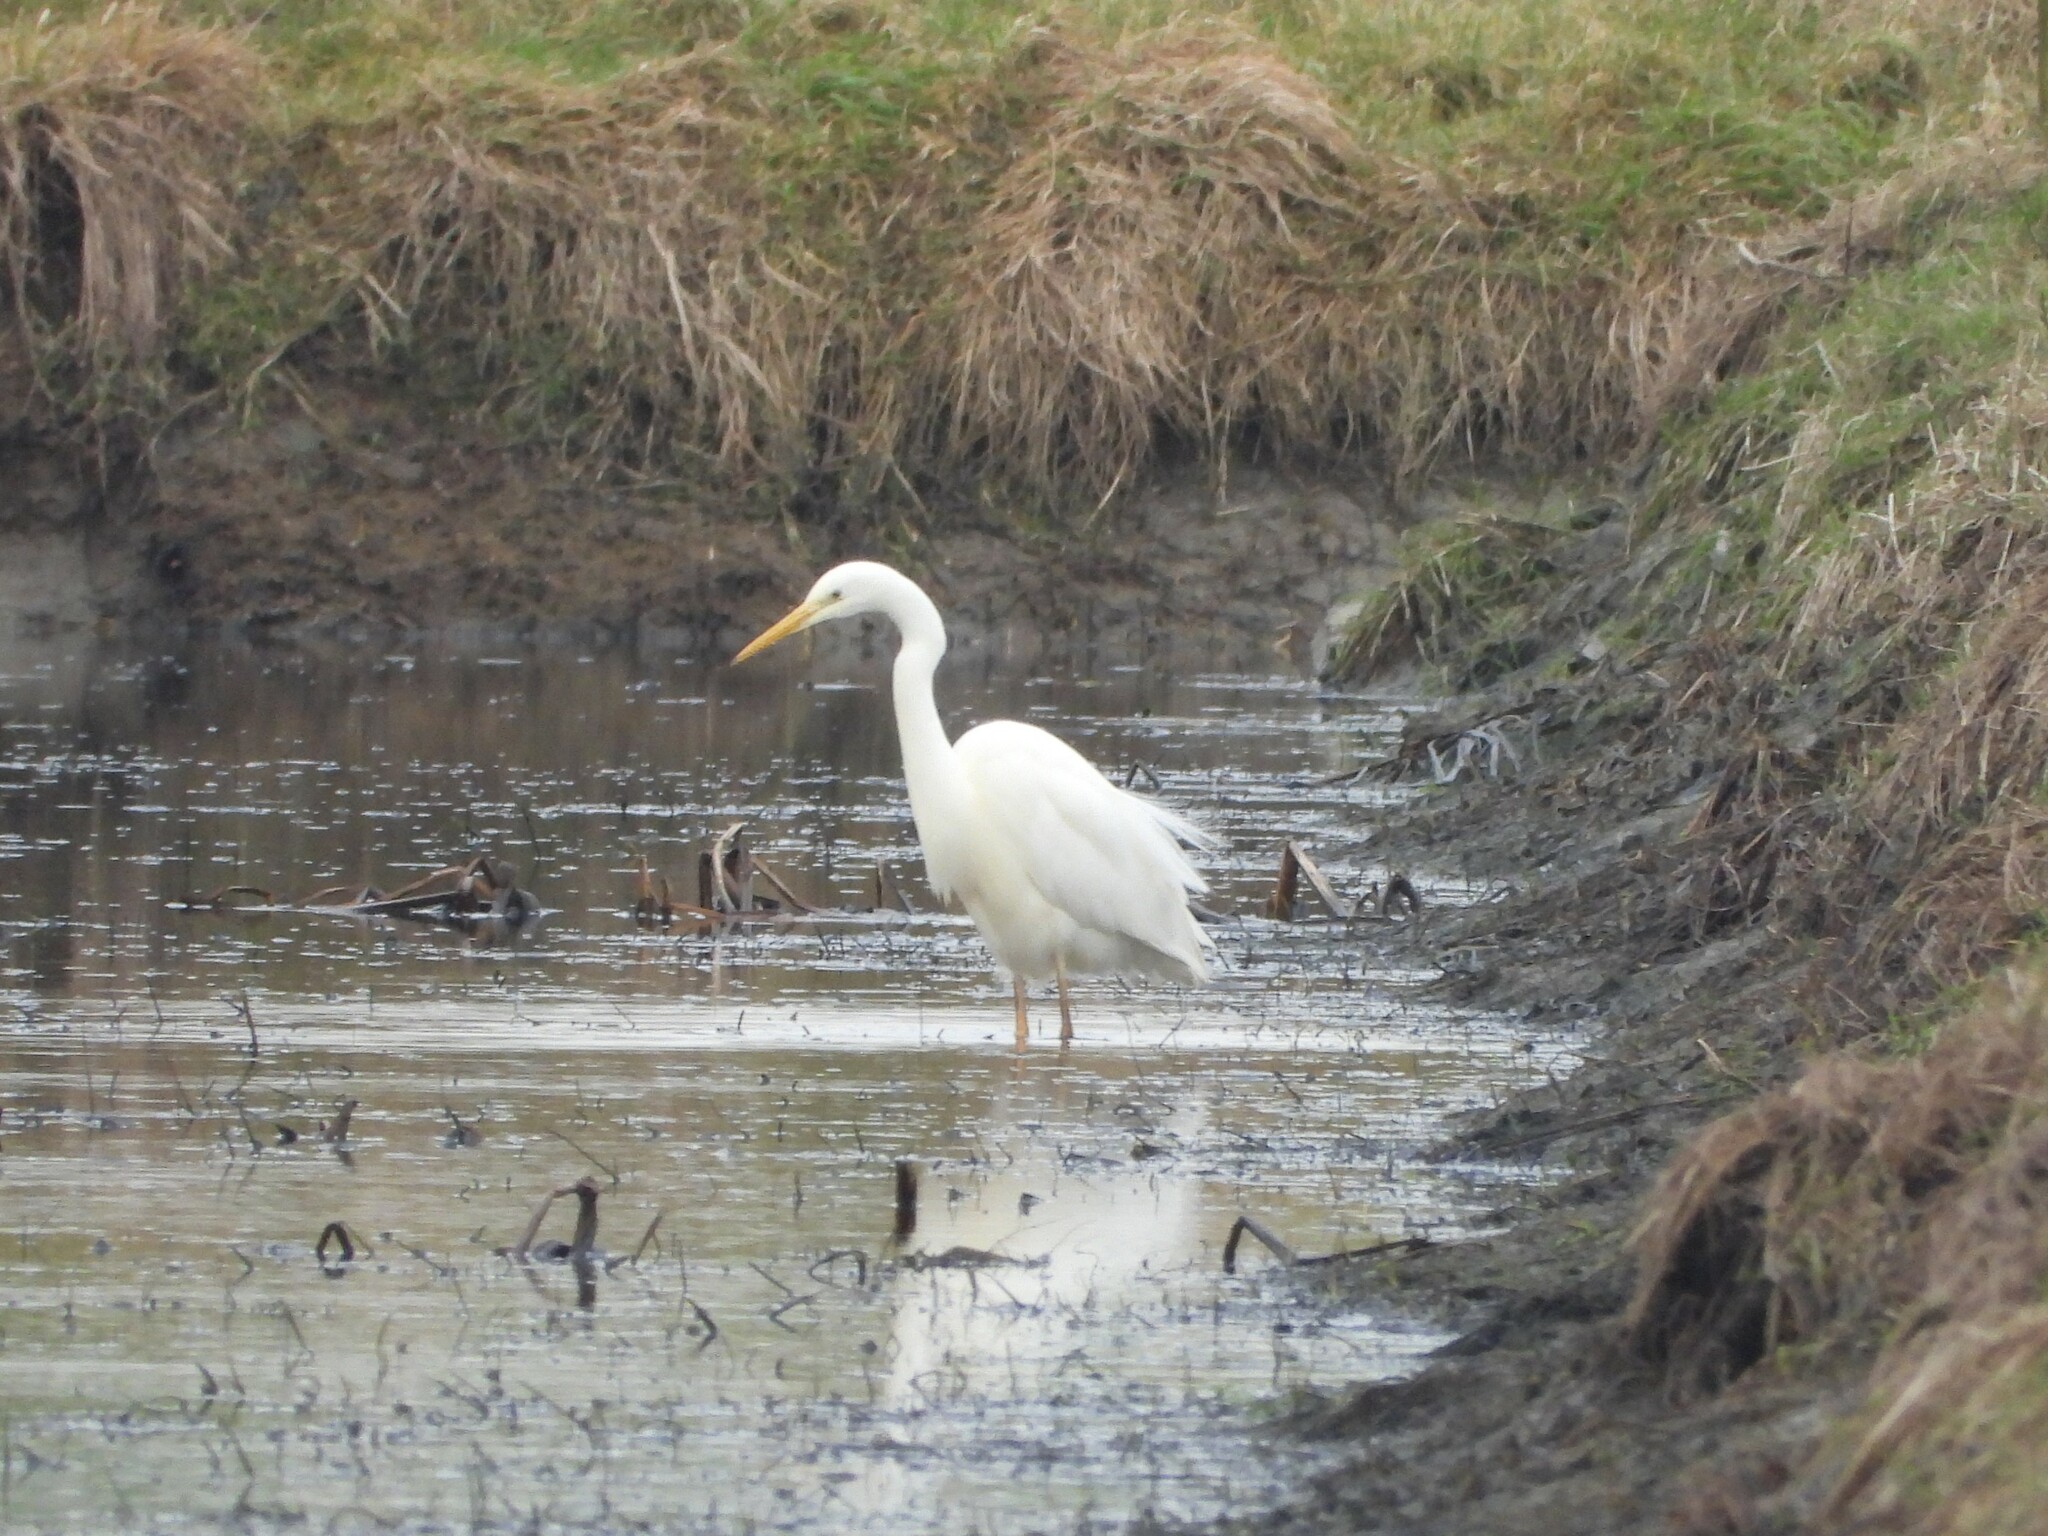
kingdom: Animalia
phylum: Chordata
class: Aves
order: Pelecaniformes
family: Ardeidae
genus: Ardea
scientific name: Ardea alba
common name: Great egret
